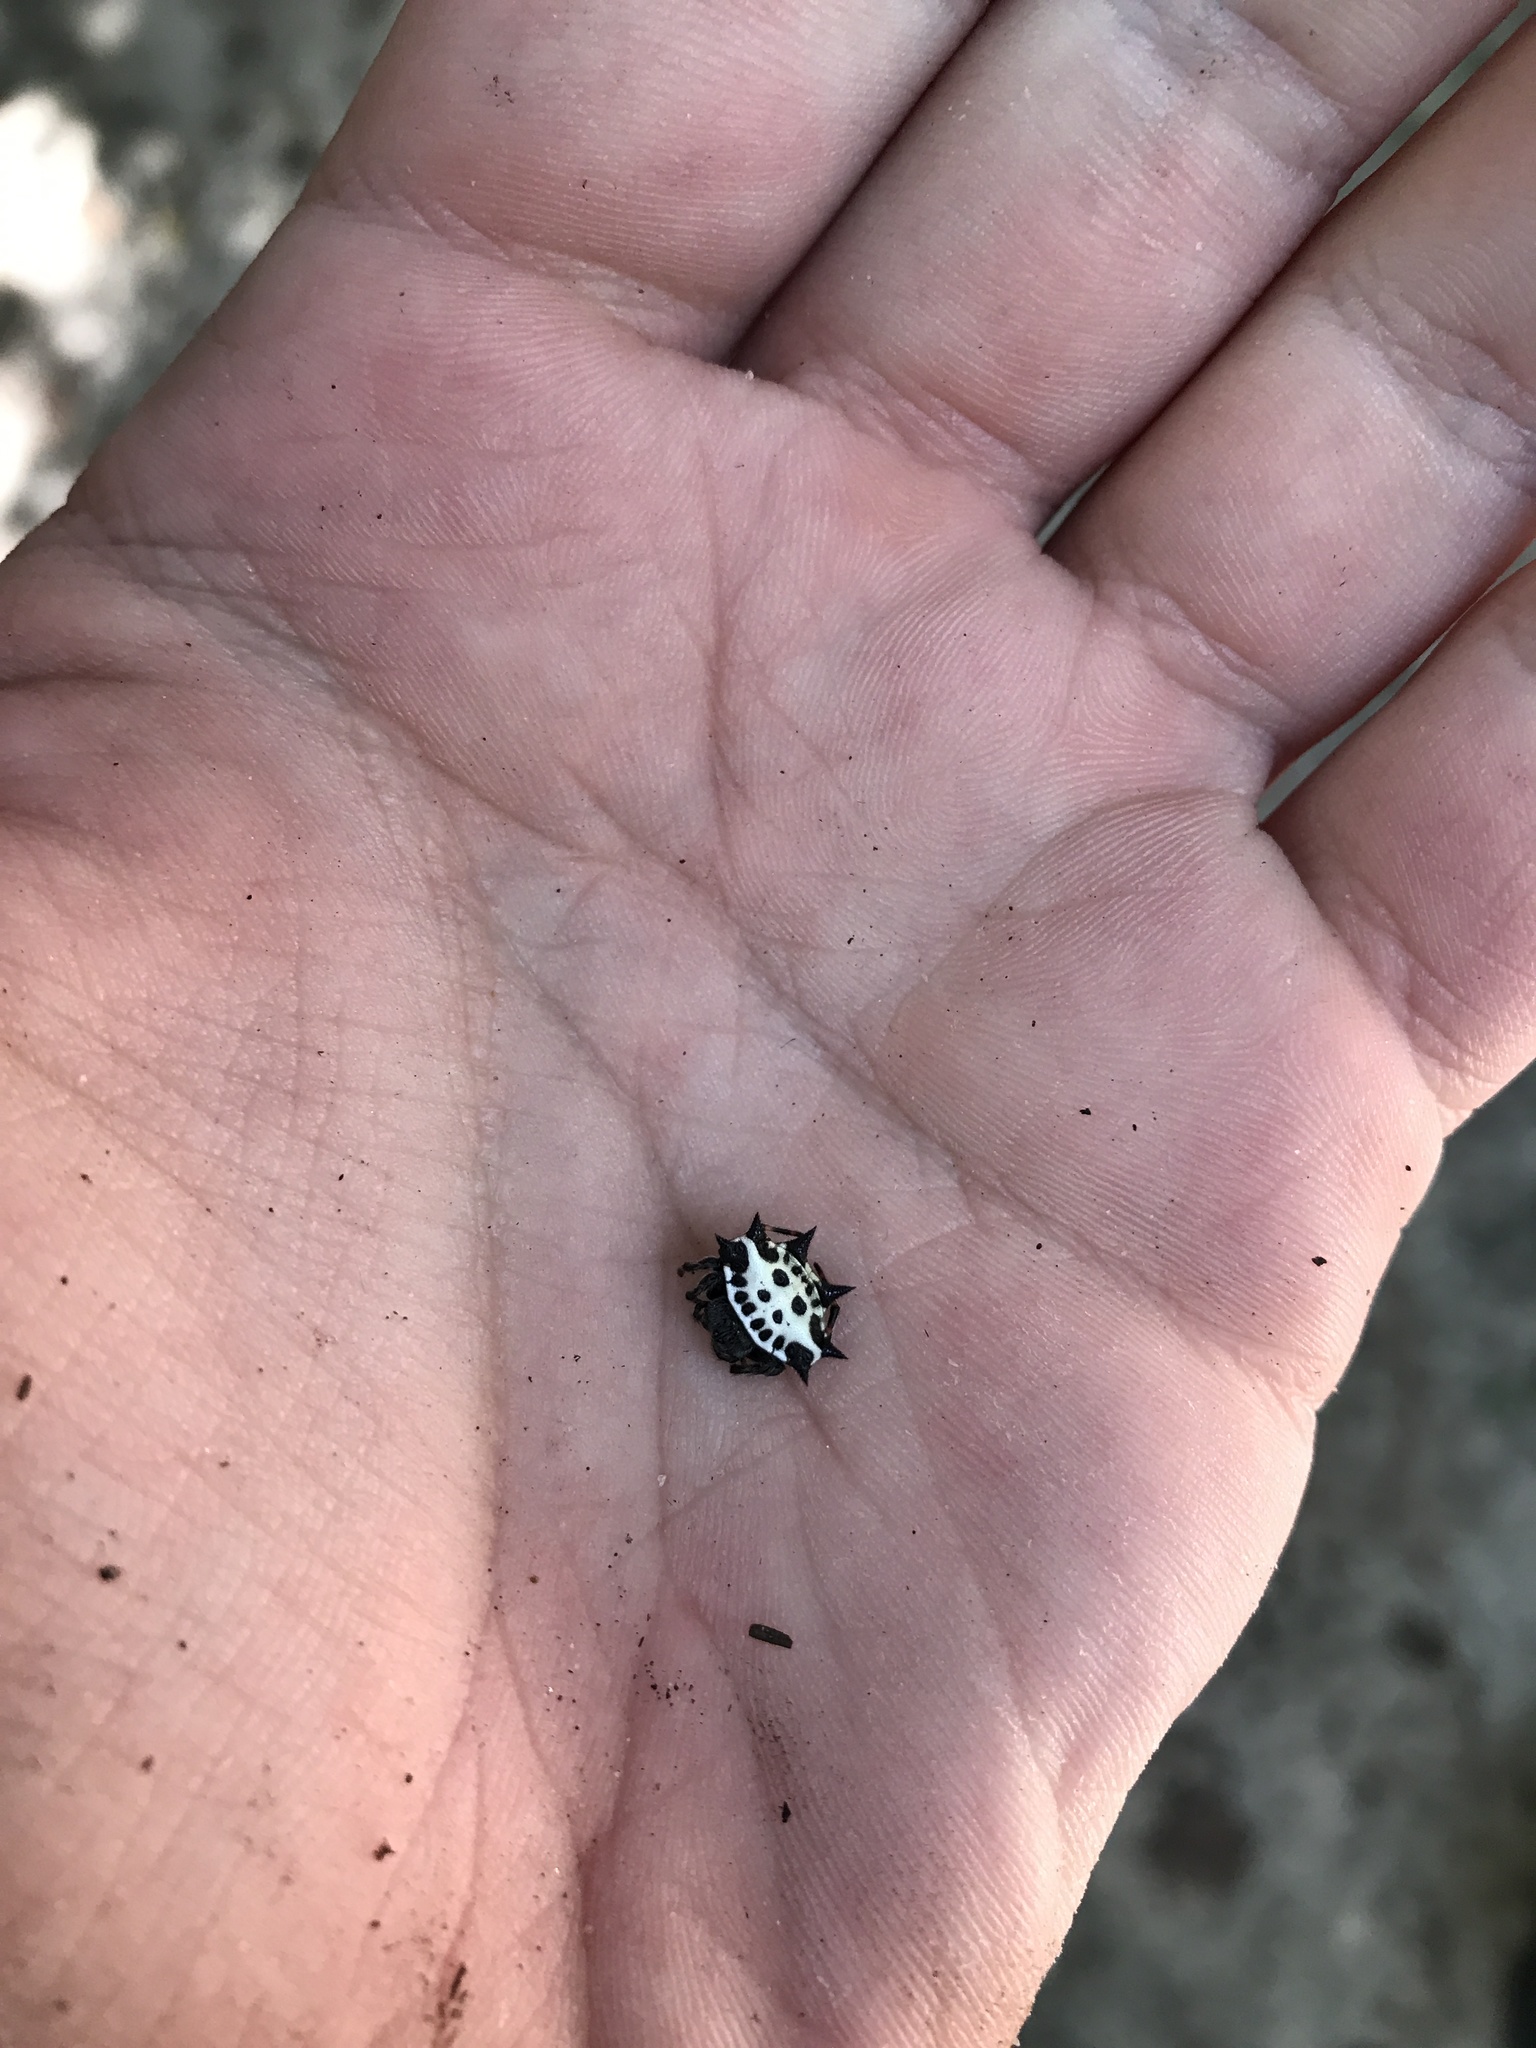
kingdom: Animalia
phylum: Arthropoda
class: Arachnida
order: Araneae
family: Araneidae
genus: Gasteracantha
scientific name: Gasteracantha cancriformis
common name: Orb weavers
